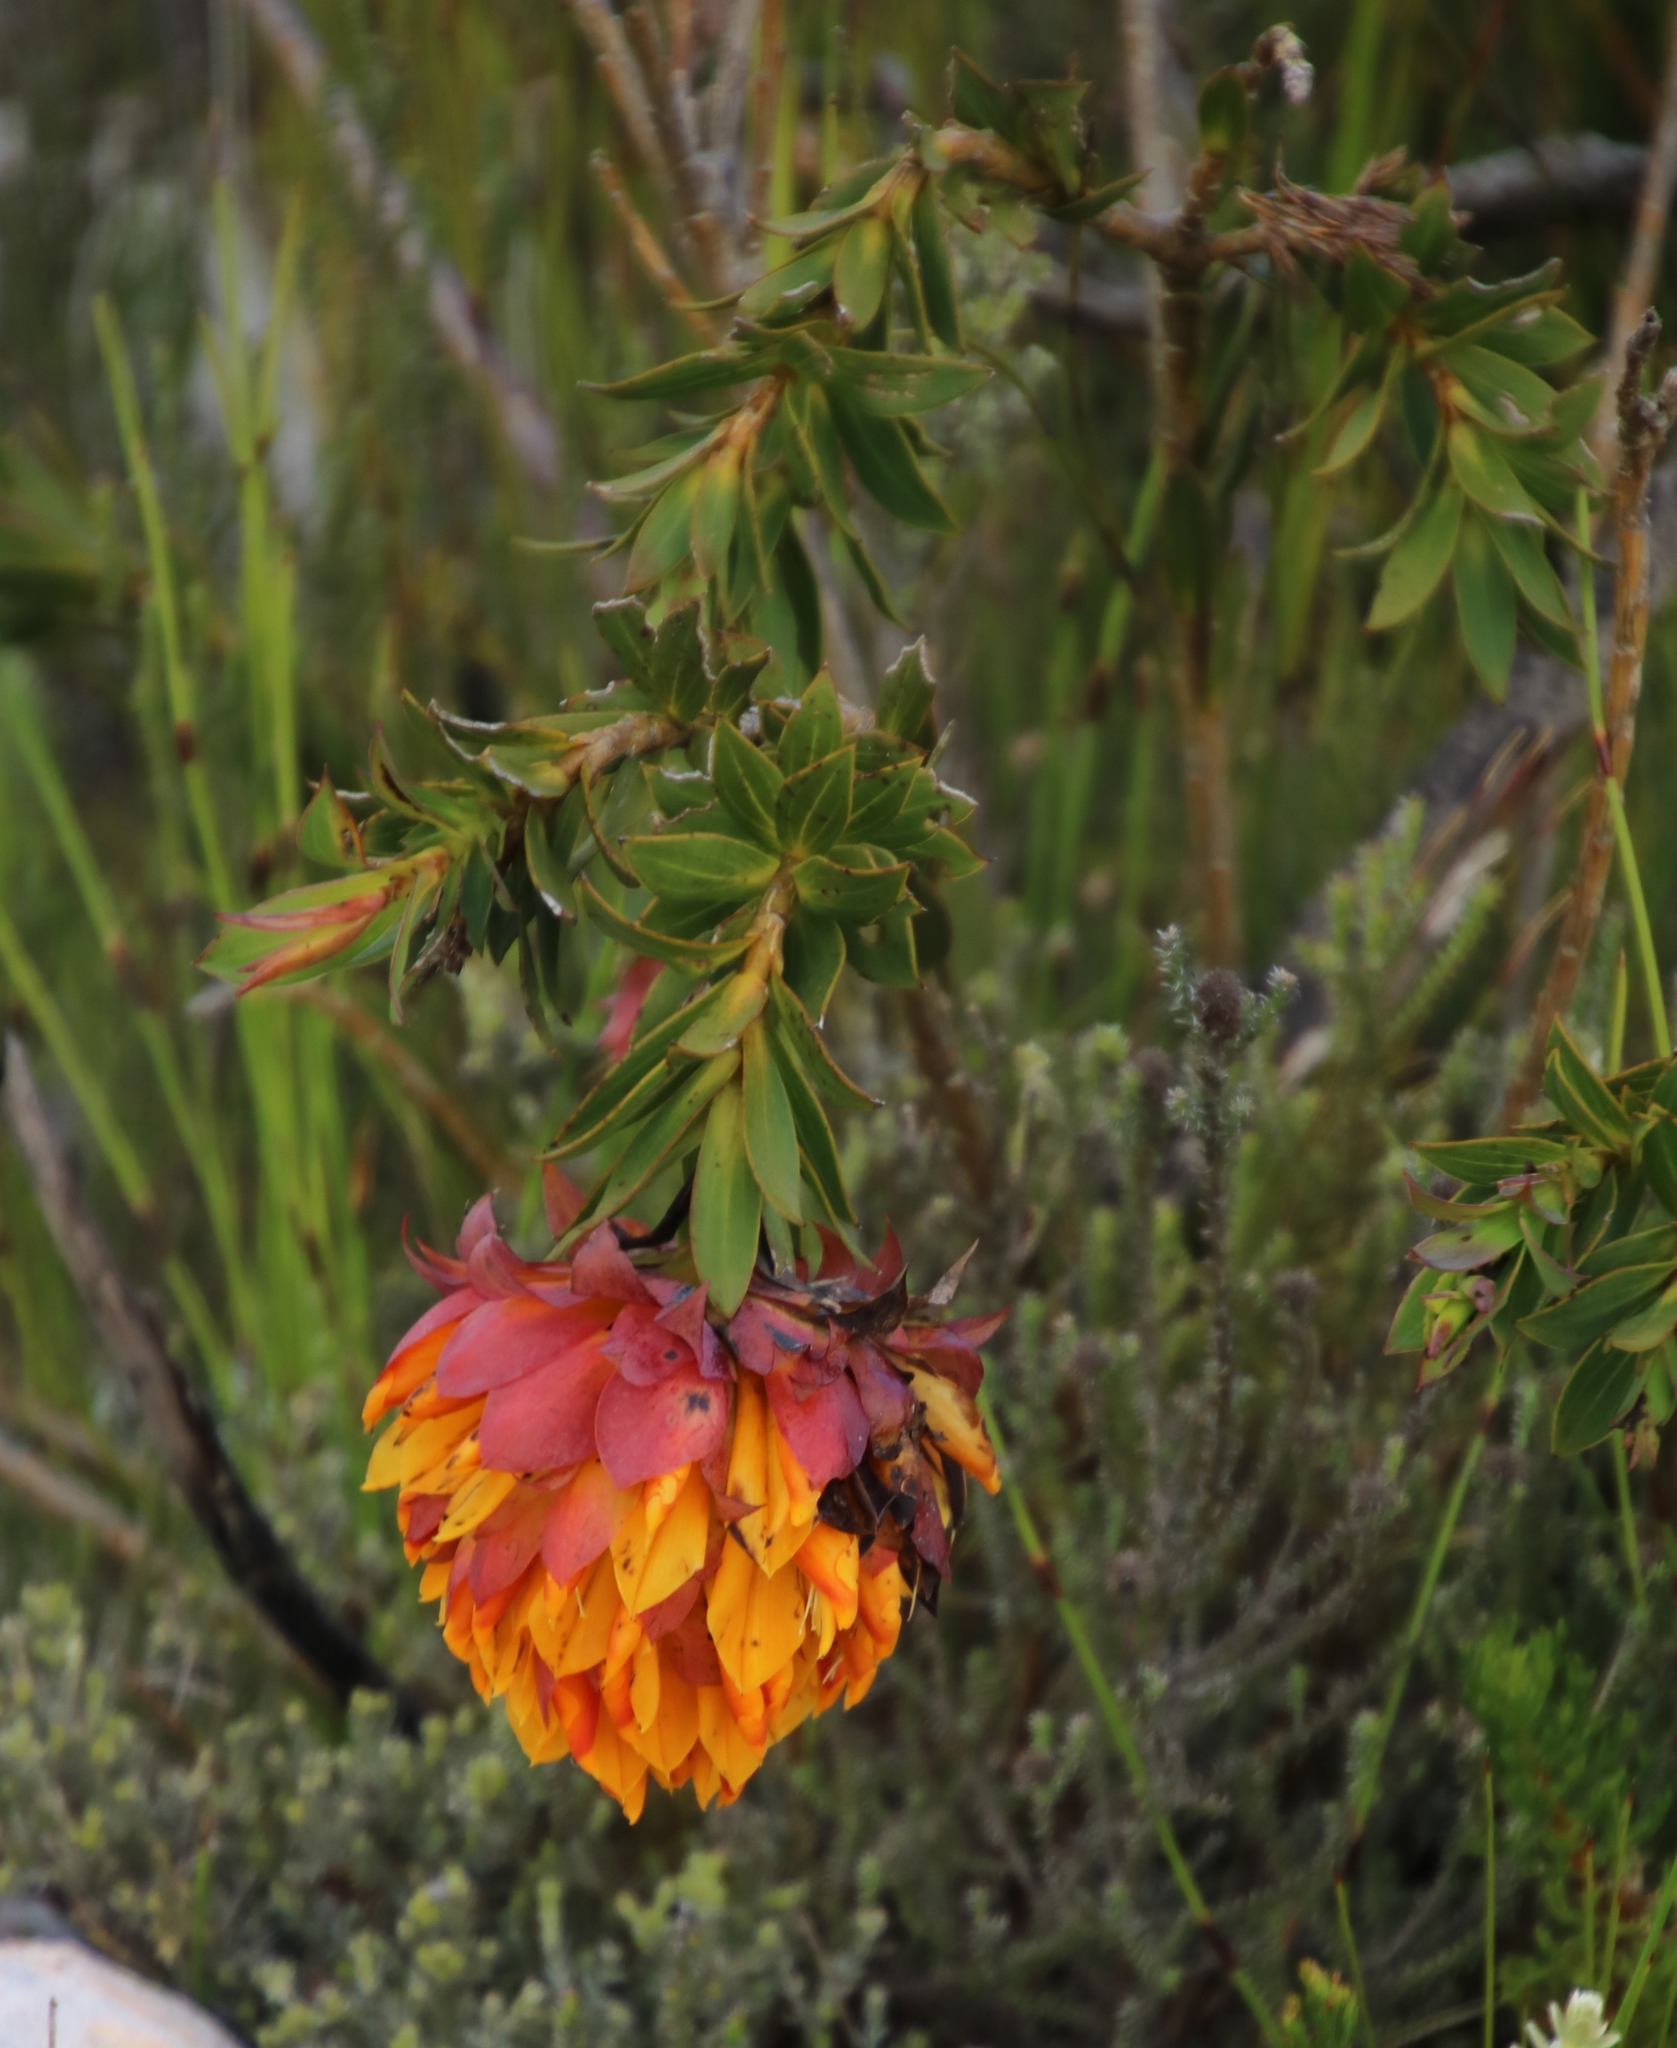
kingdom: Plantae
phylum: Tracheophyta
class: Magnoliopsida
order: Fabales
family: Fabaceae
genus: Liparia
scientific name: Liparia splendens
